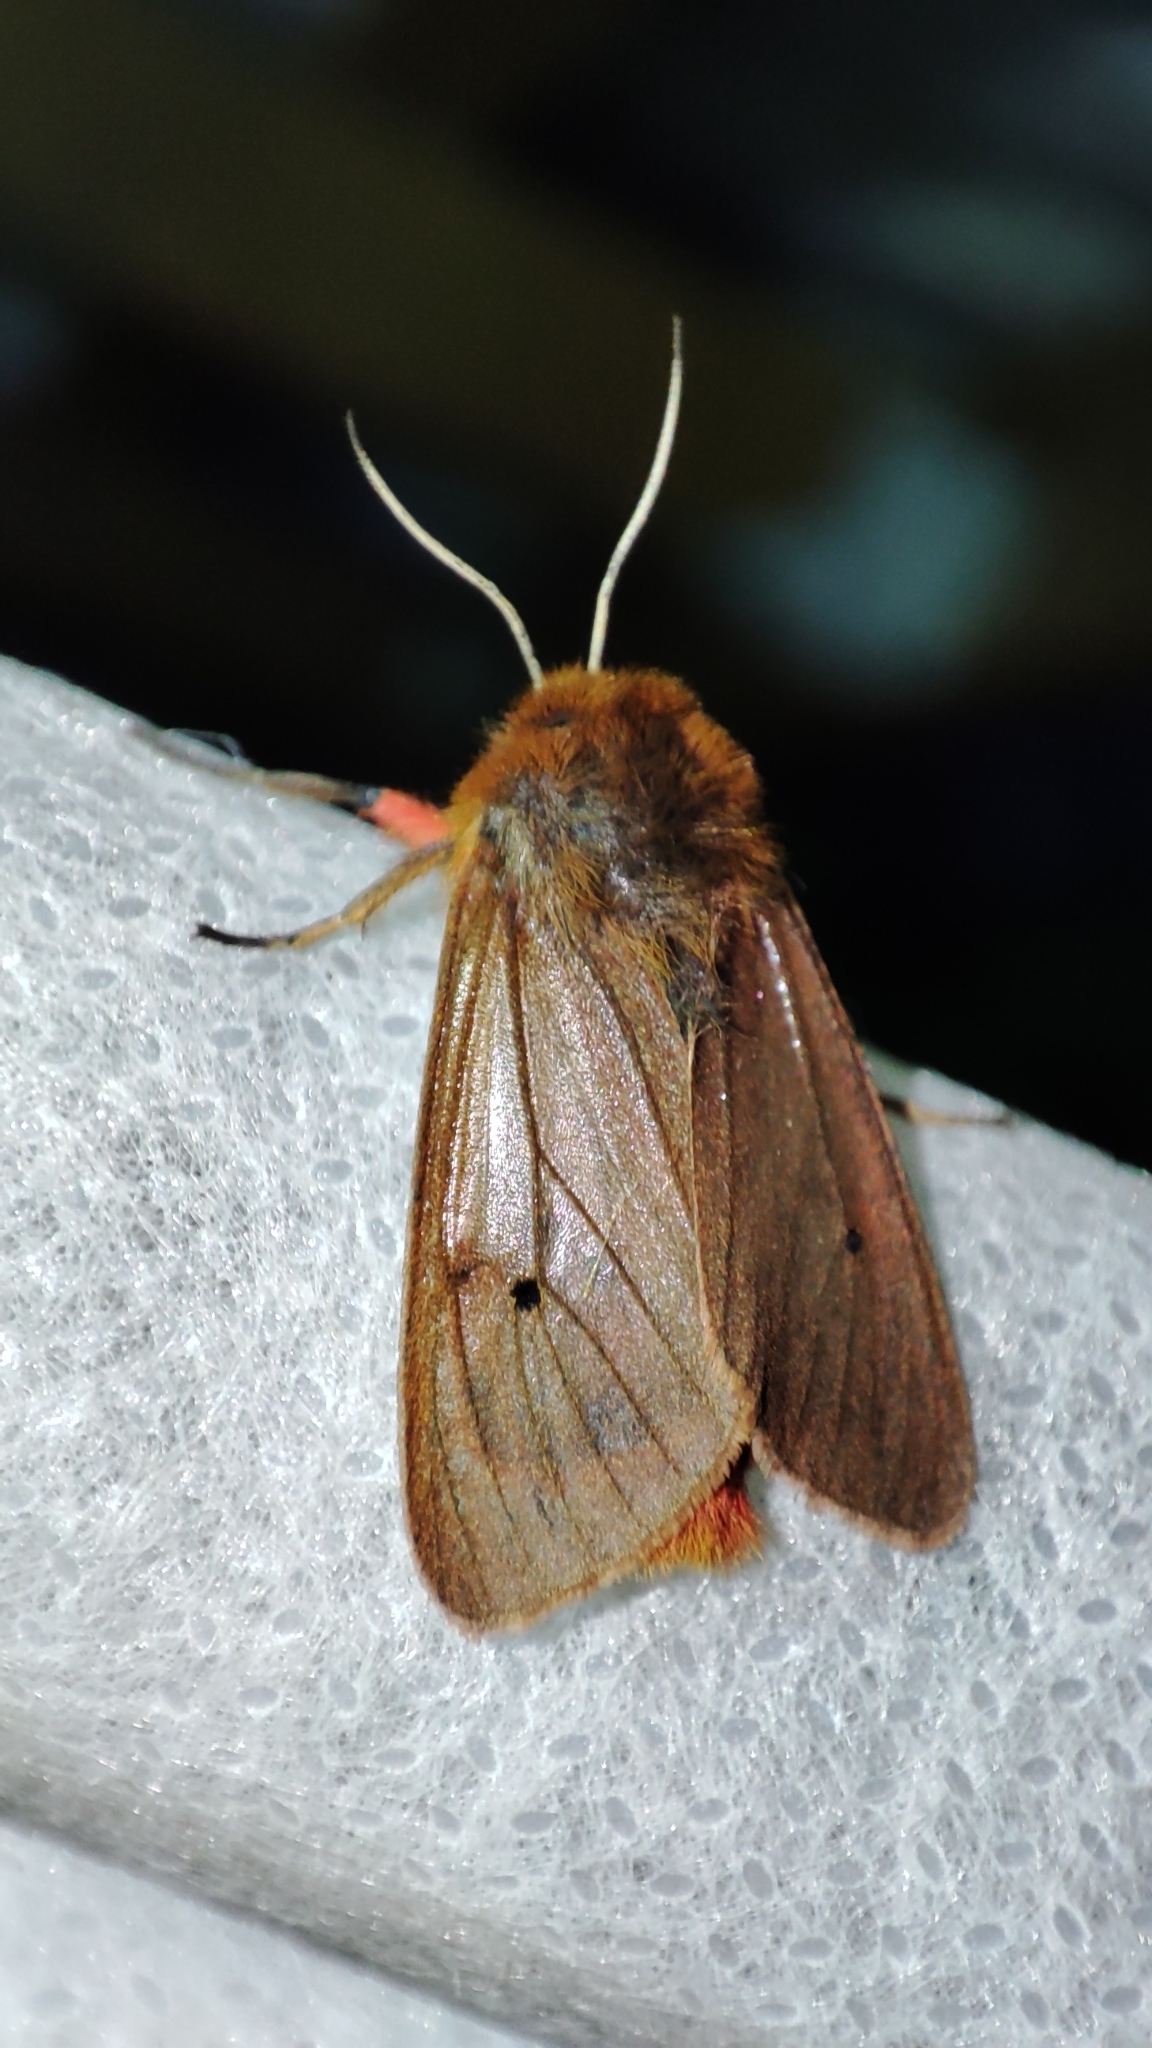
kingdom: Animalia
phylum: Arthropoda
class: Insecta
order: Lepidoptera
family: Erebidae
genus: Phragmatobia
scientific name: Phragmatobia fuliginosa
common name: Ruby tiger
